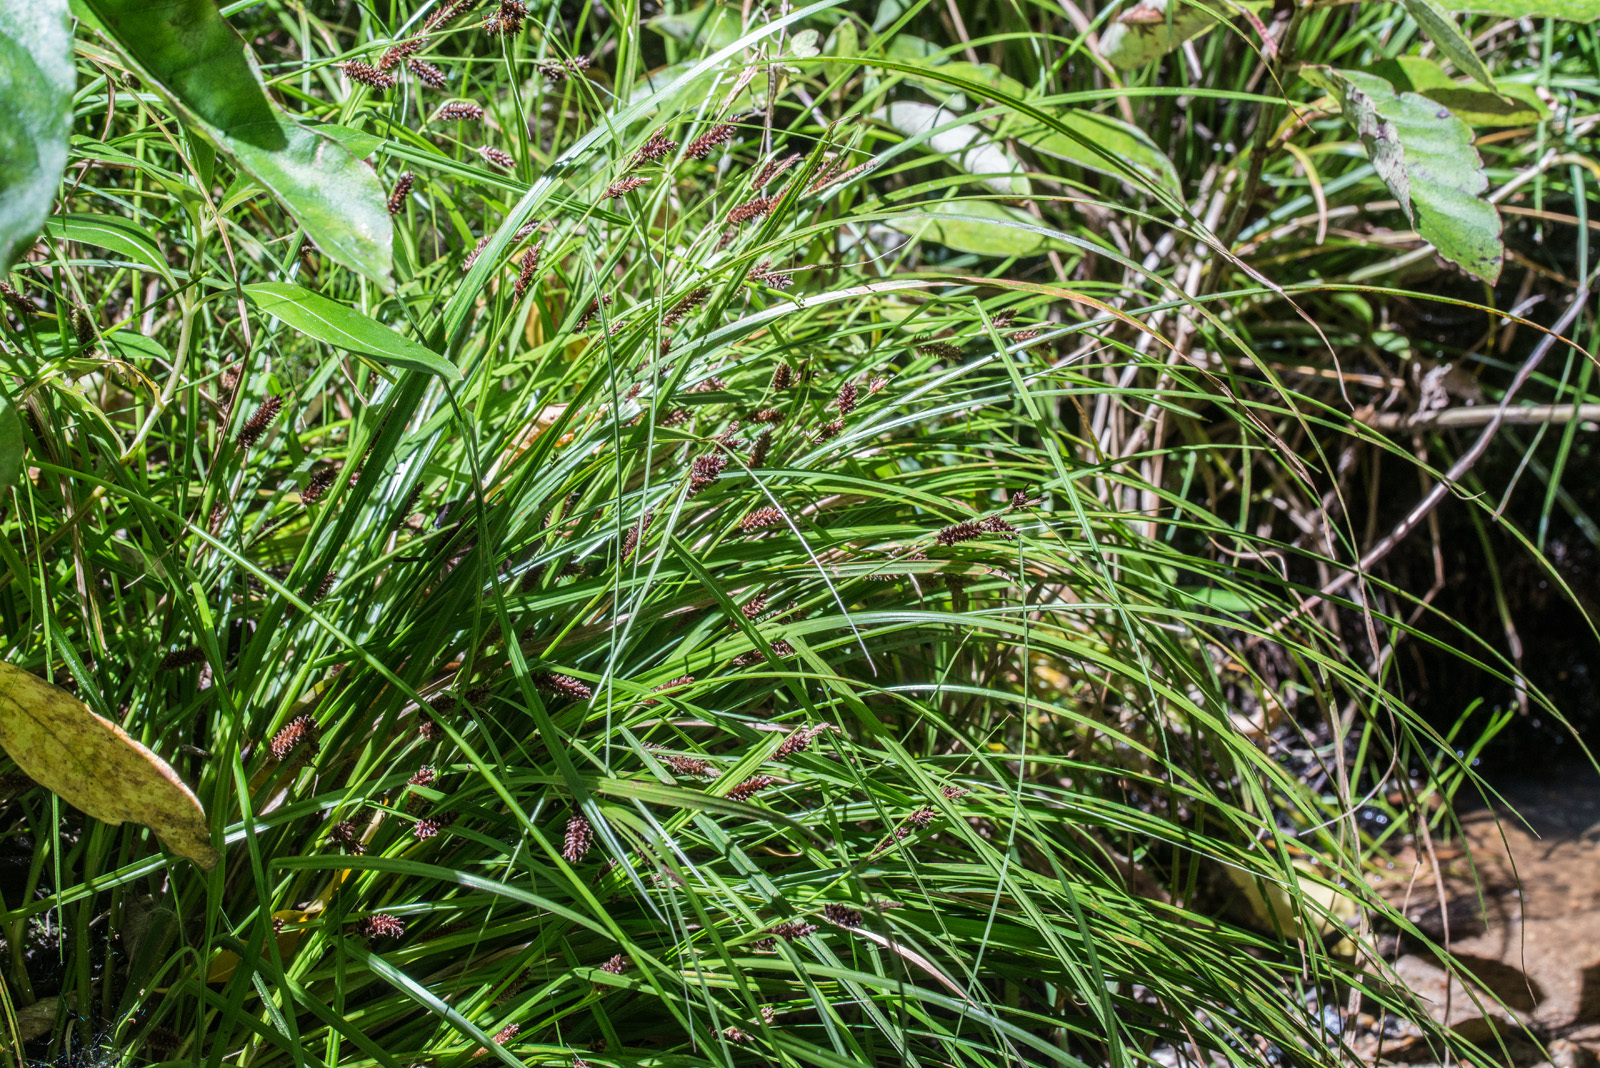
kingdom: Plantae
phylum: Tracheophyta
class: Liliopsida
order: Poales
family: Cyperaceae
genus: Carex
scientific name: Carex dissita
